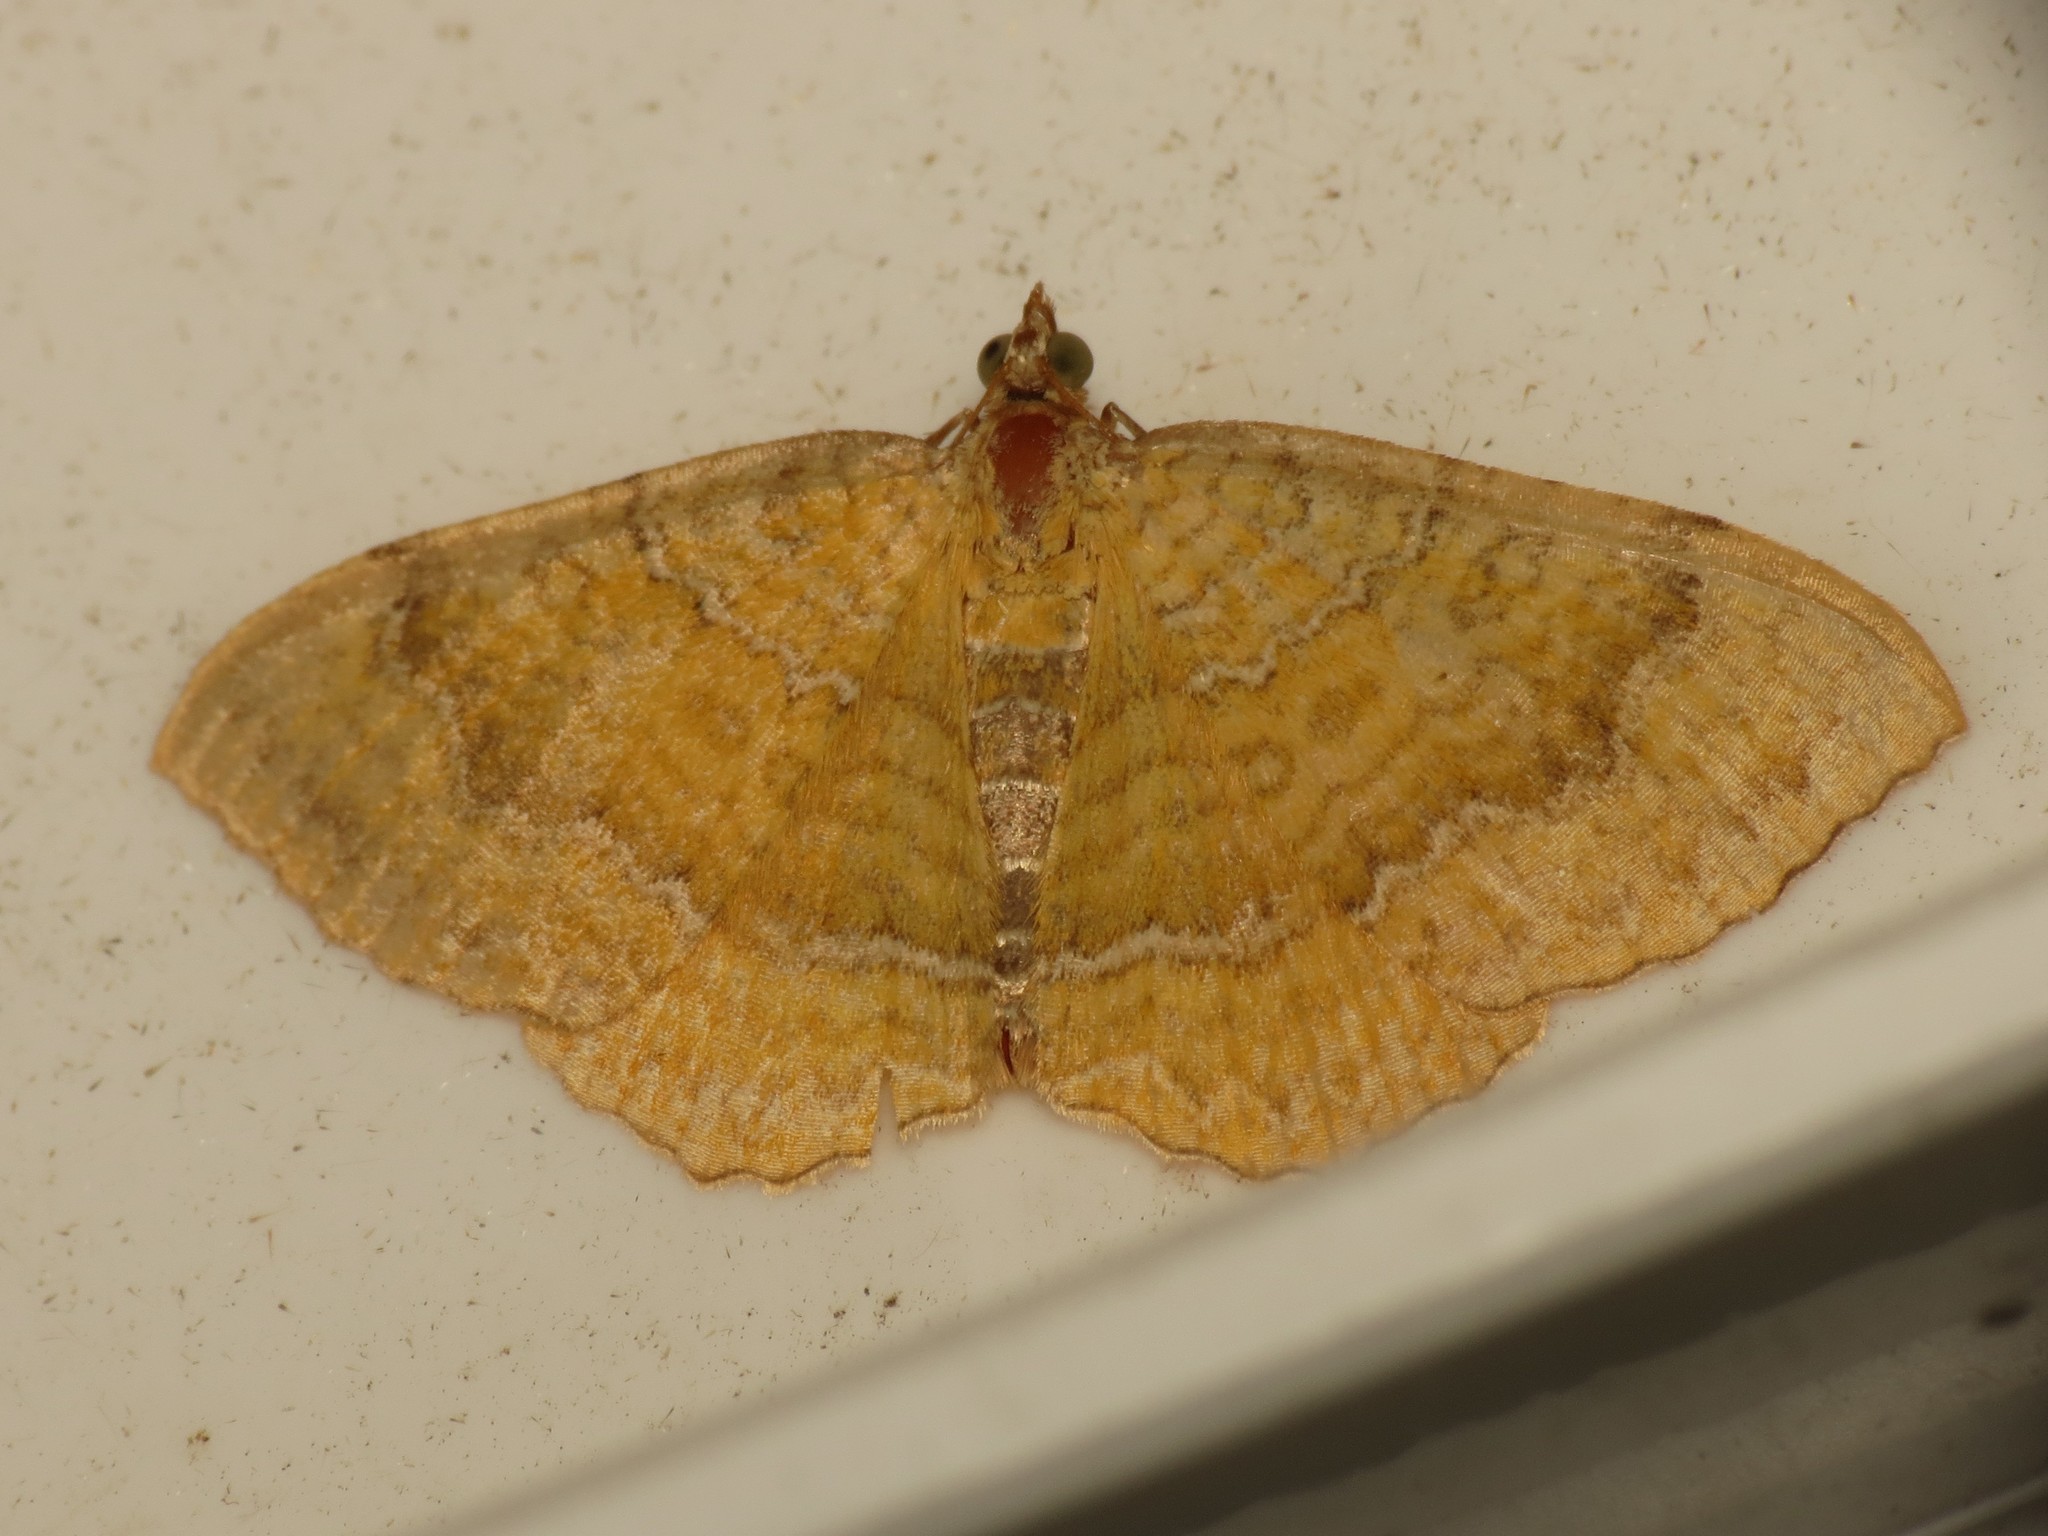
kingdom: Animalia
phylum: Arthropoda
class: Insecta
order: Lepidoptera
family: Geometridae
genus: Camptogramma
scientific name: Camptogramma bilineata
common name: Yellow shell
